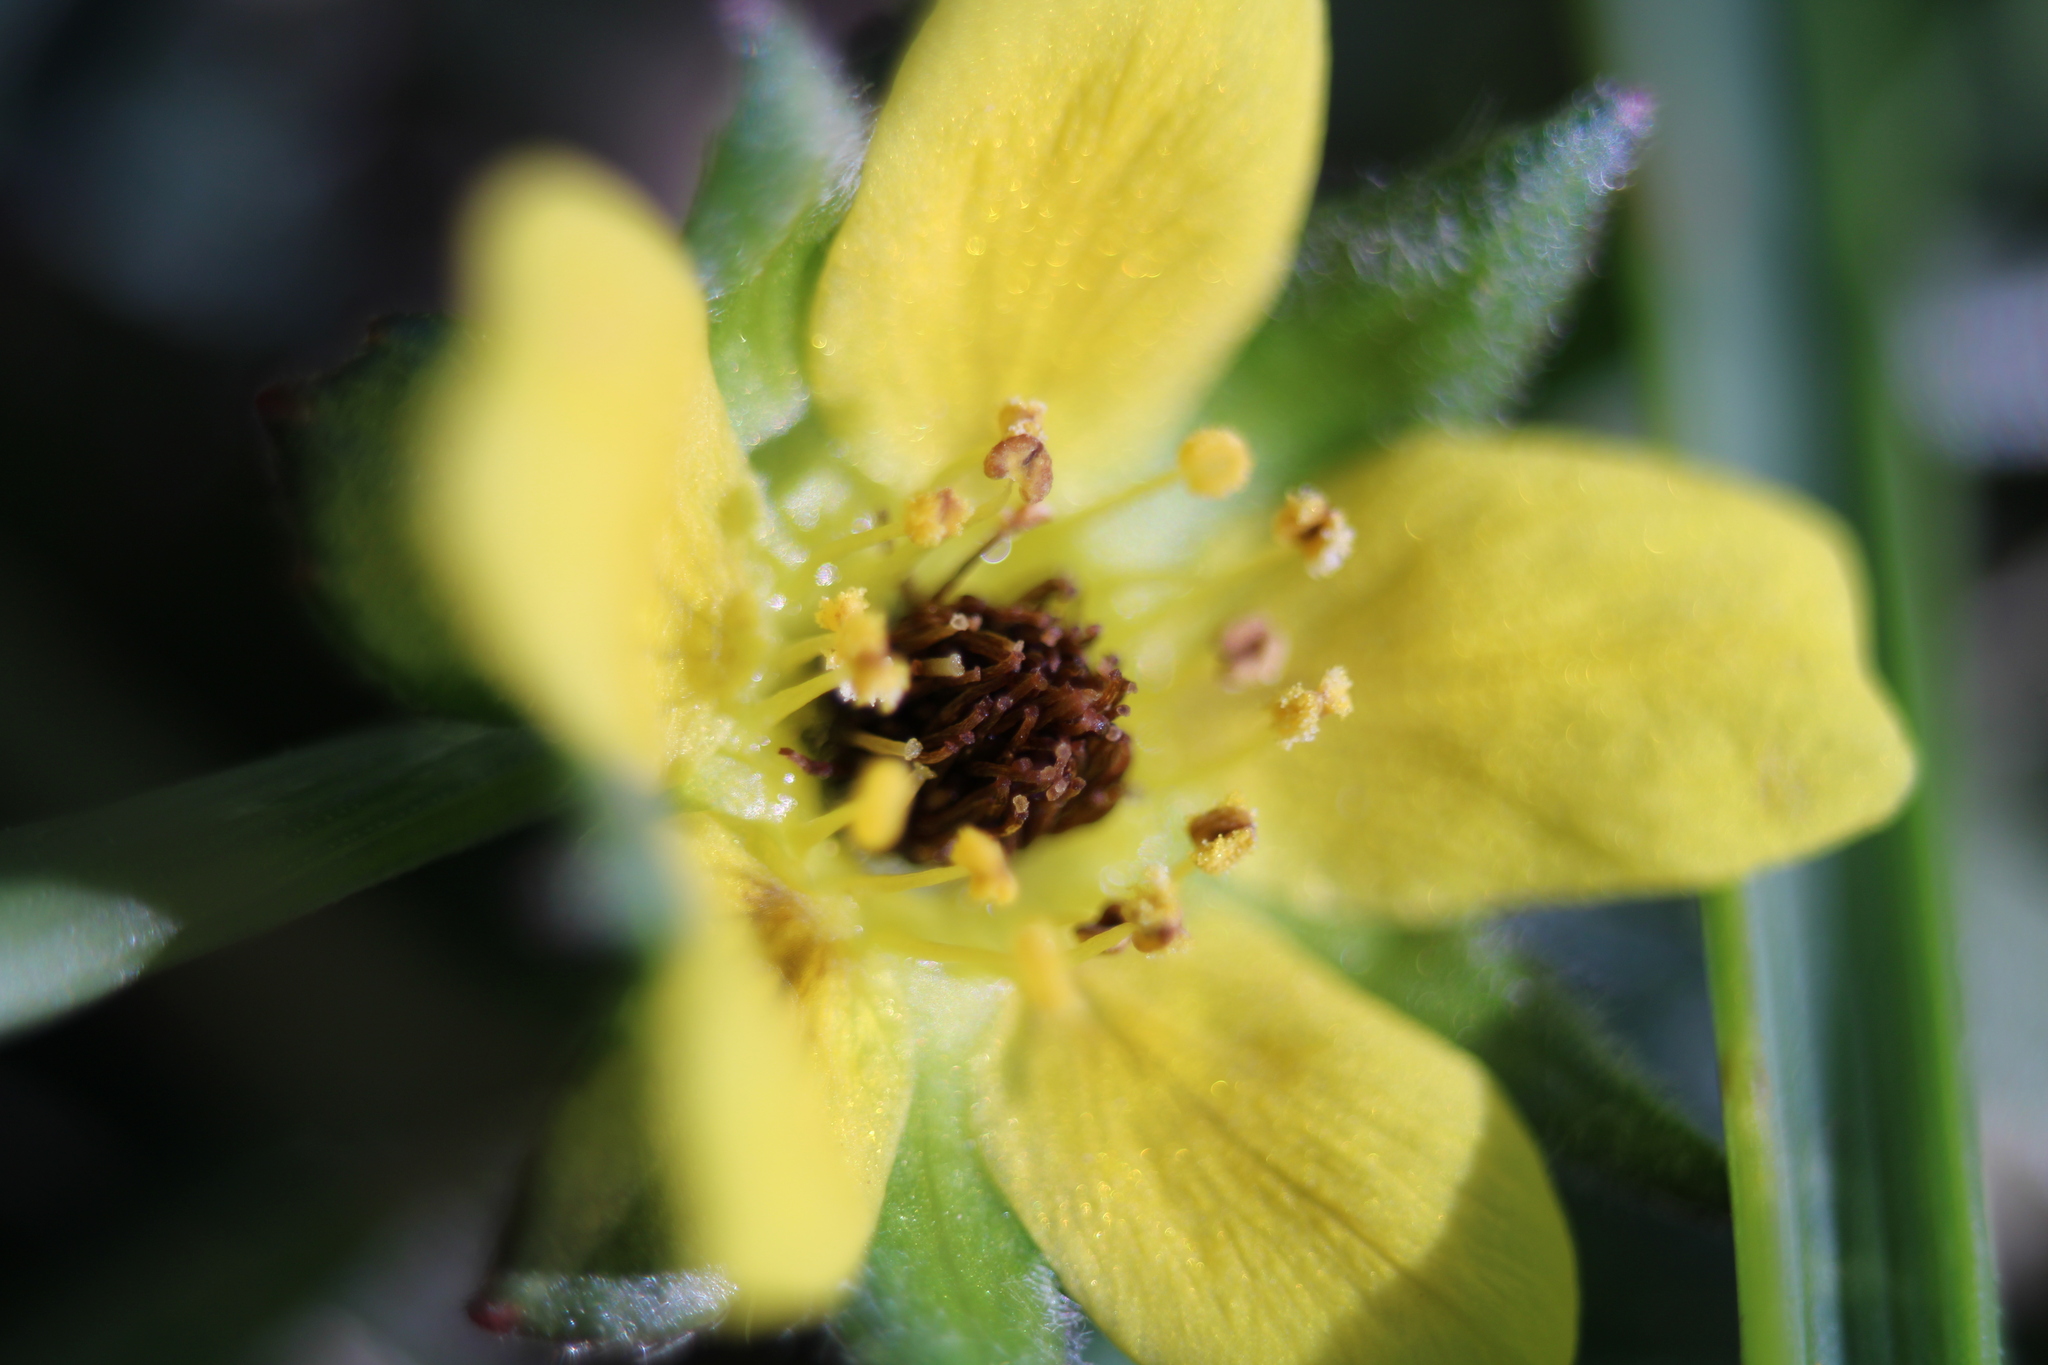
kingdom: Plantae
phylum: Tracheophyta
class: Magnoliopsida
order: Rosales
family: Rosaceae
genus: Potentilla
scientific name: Potentilla indica
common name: Yellow-flowered strawberry
